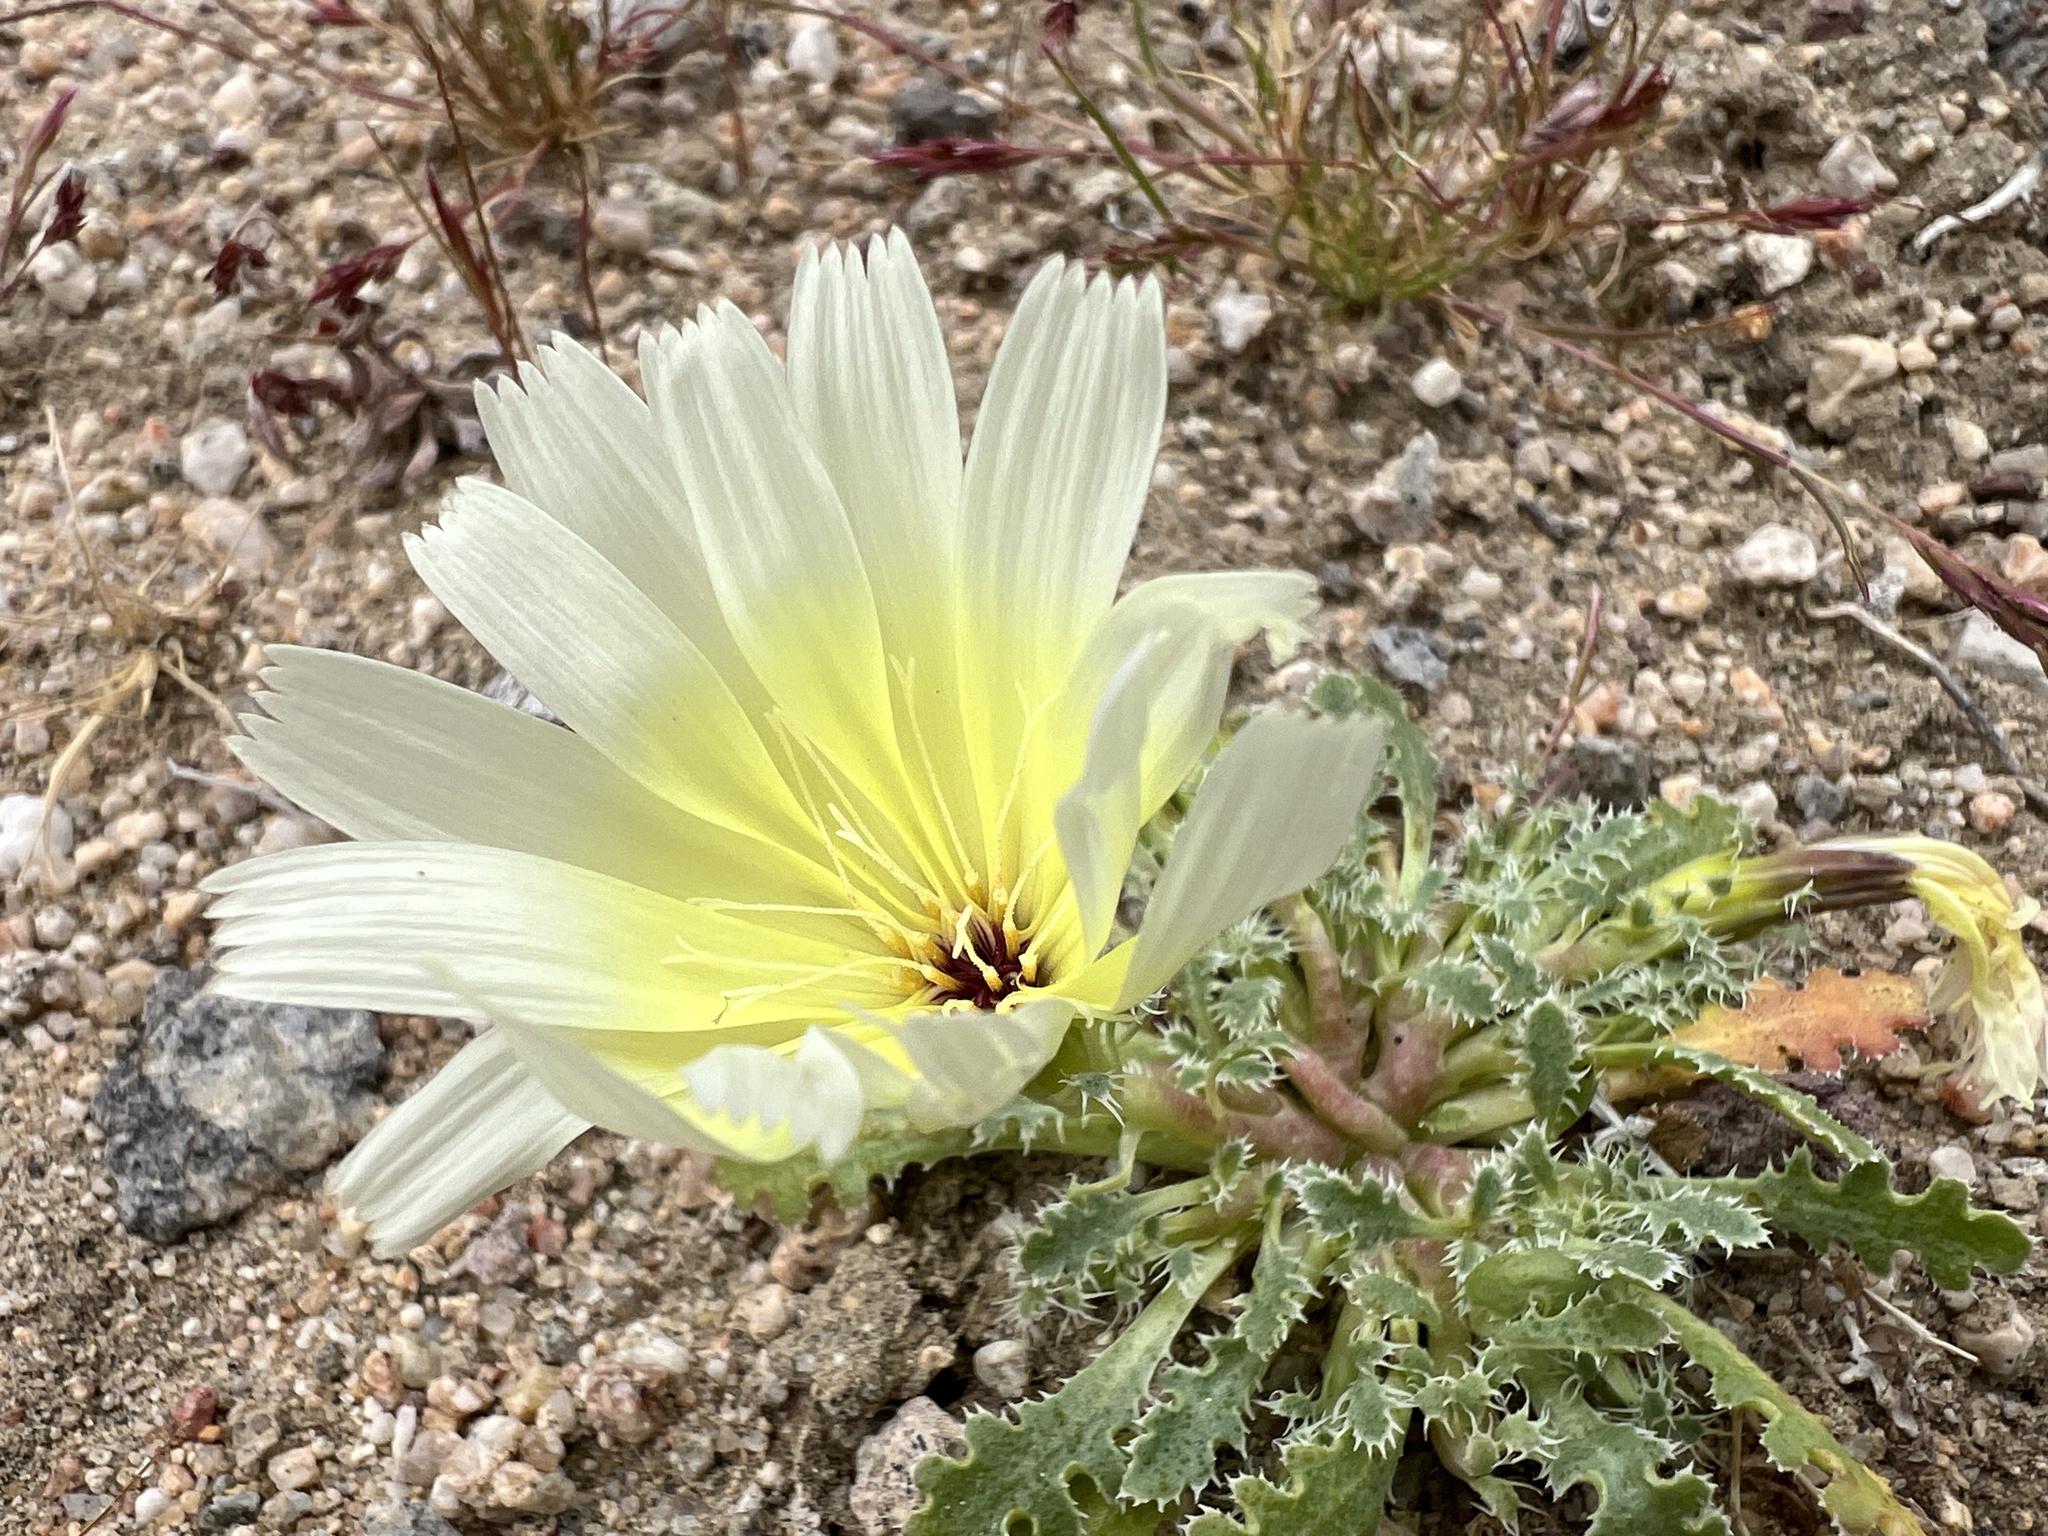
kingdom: Plantae
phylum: Tracheophyta
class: Magnoliopsida
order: Asterales
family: Asteraceae
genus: Glyptopleura
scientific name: Glyptopleura setulosa
